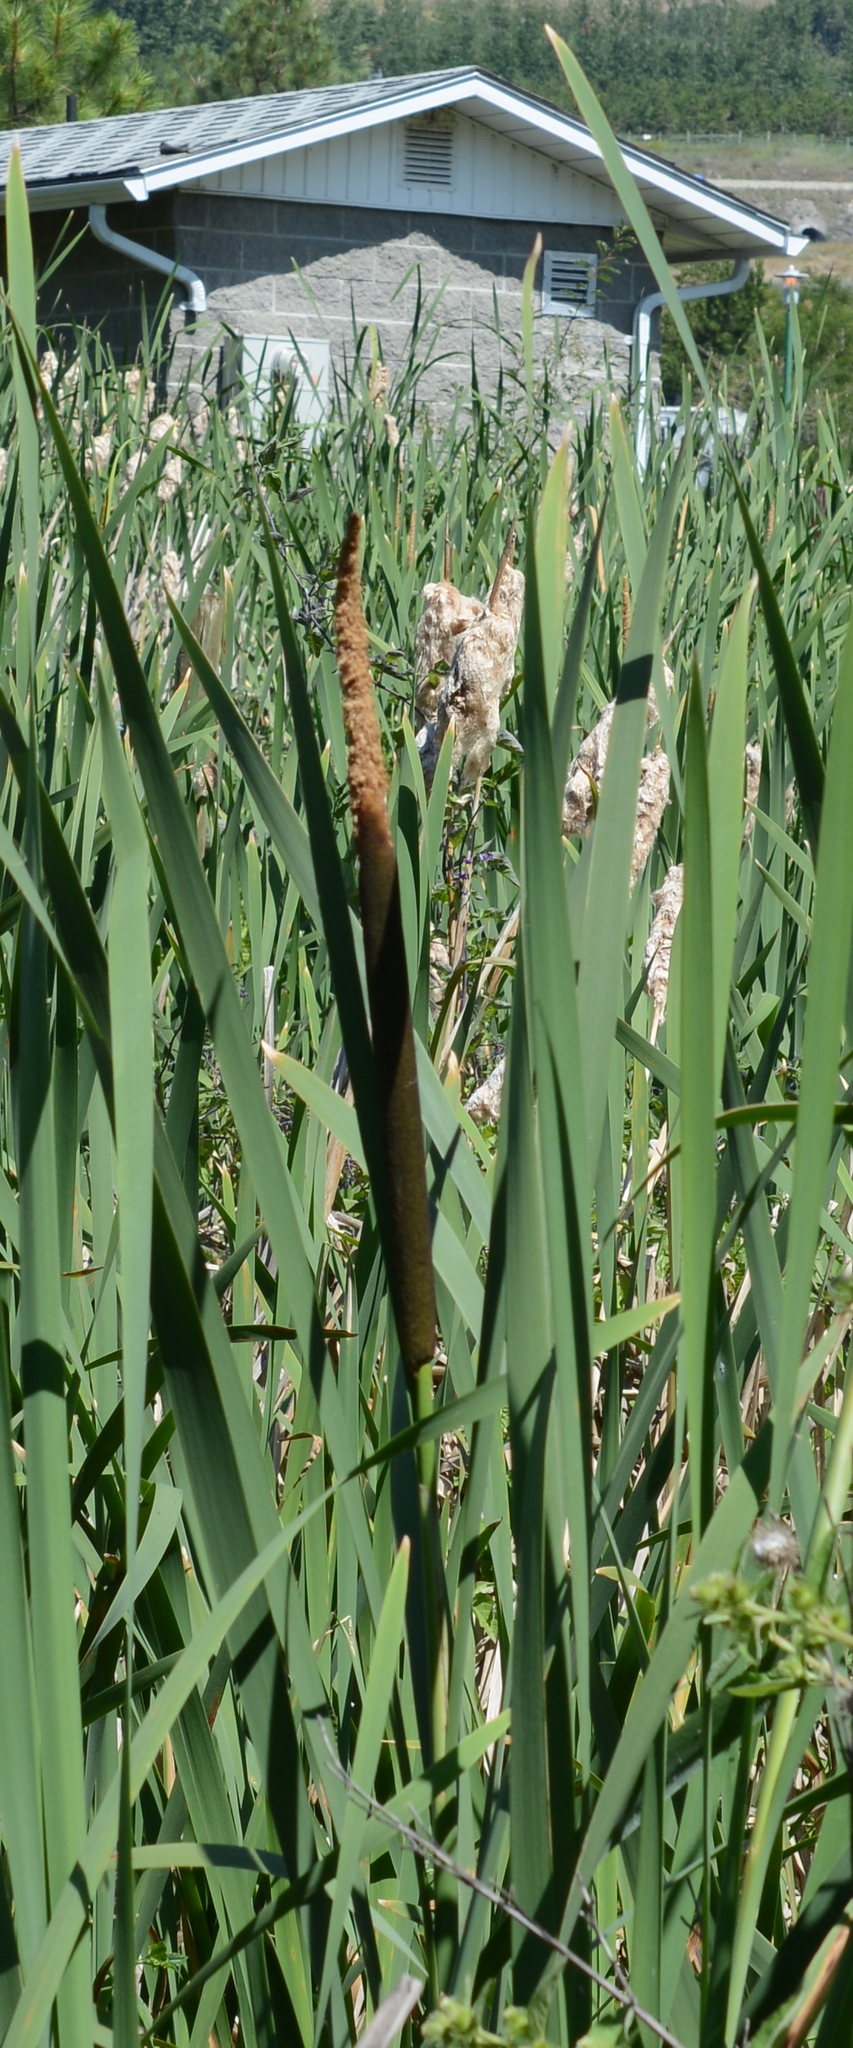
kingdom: Plantae
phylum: Tracheophyta
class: Liliopsida
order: Poales
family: Typhaceae
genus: Typha
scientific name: Typha latifolia
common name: Broadleaf cattail
